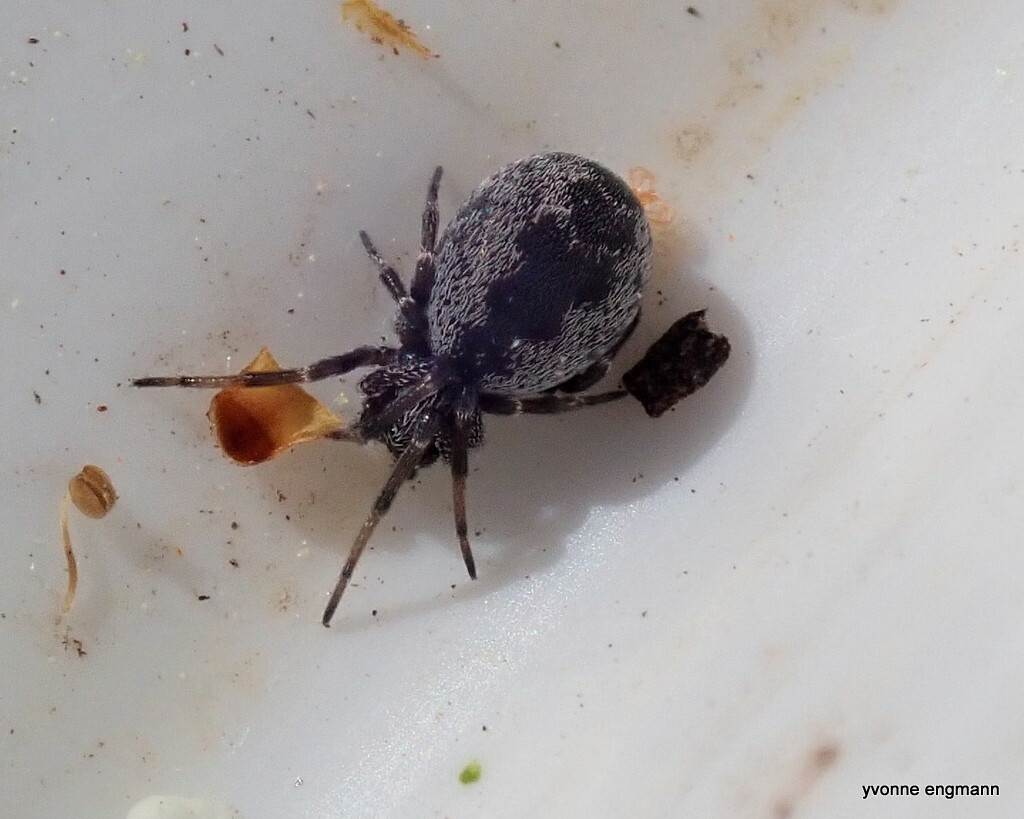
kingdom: Animalia
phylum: Arthropoda
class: Arachnida
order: Araneae
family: Dictynidae
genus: Brigittea
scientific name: Brigittea latens
